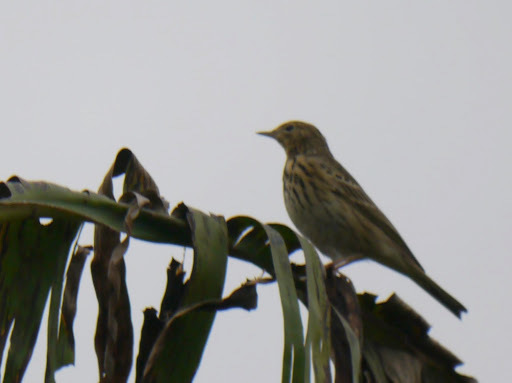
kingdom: Animalia
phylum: Chordata
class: Aves
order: Passeriformes
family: Motacillidae
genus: Anthus
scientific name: Anthus trivialis
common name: Tree pipit
